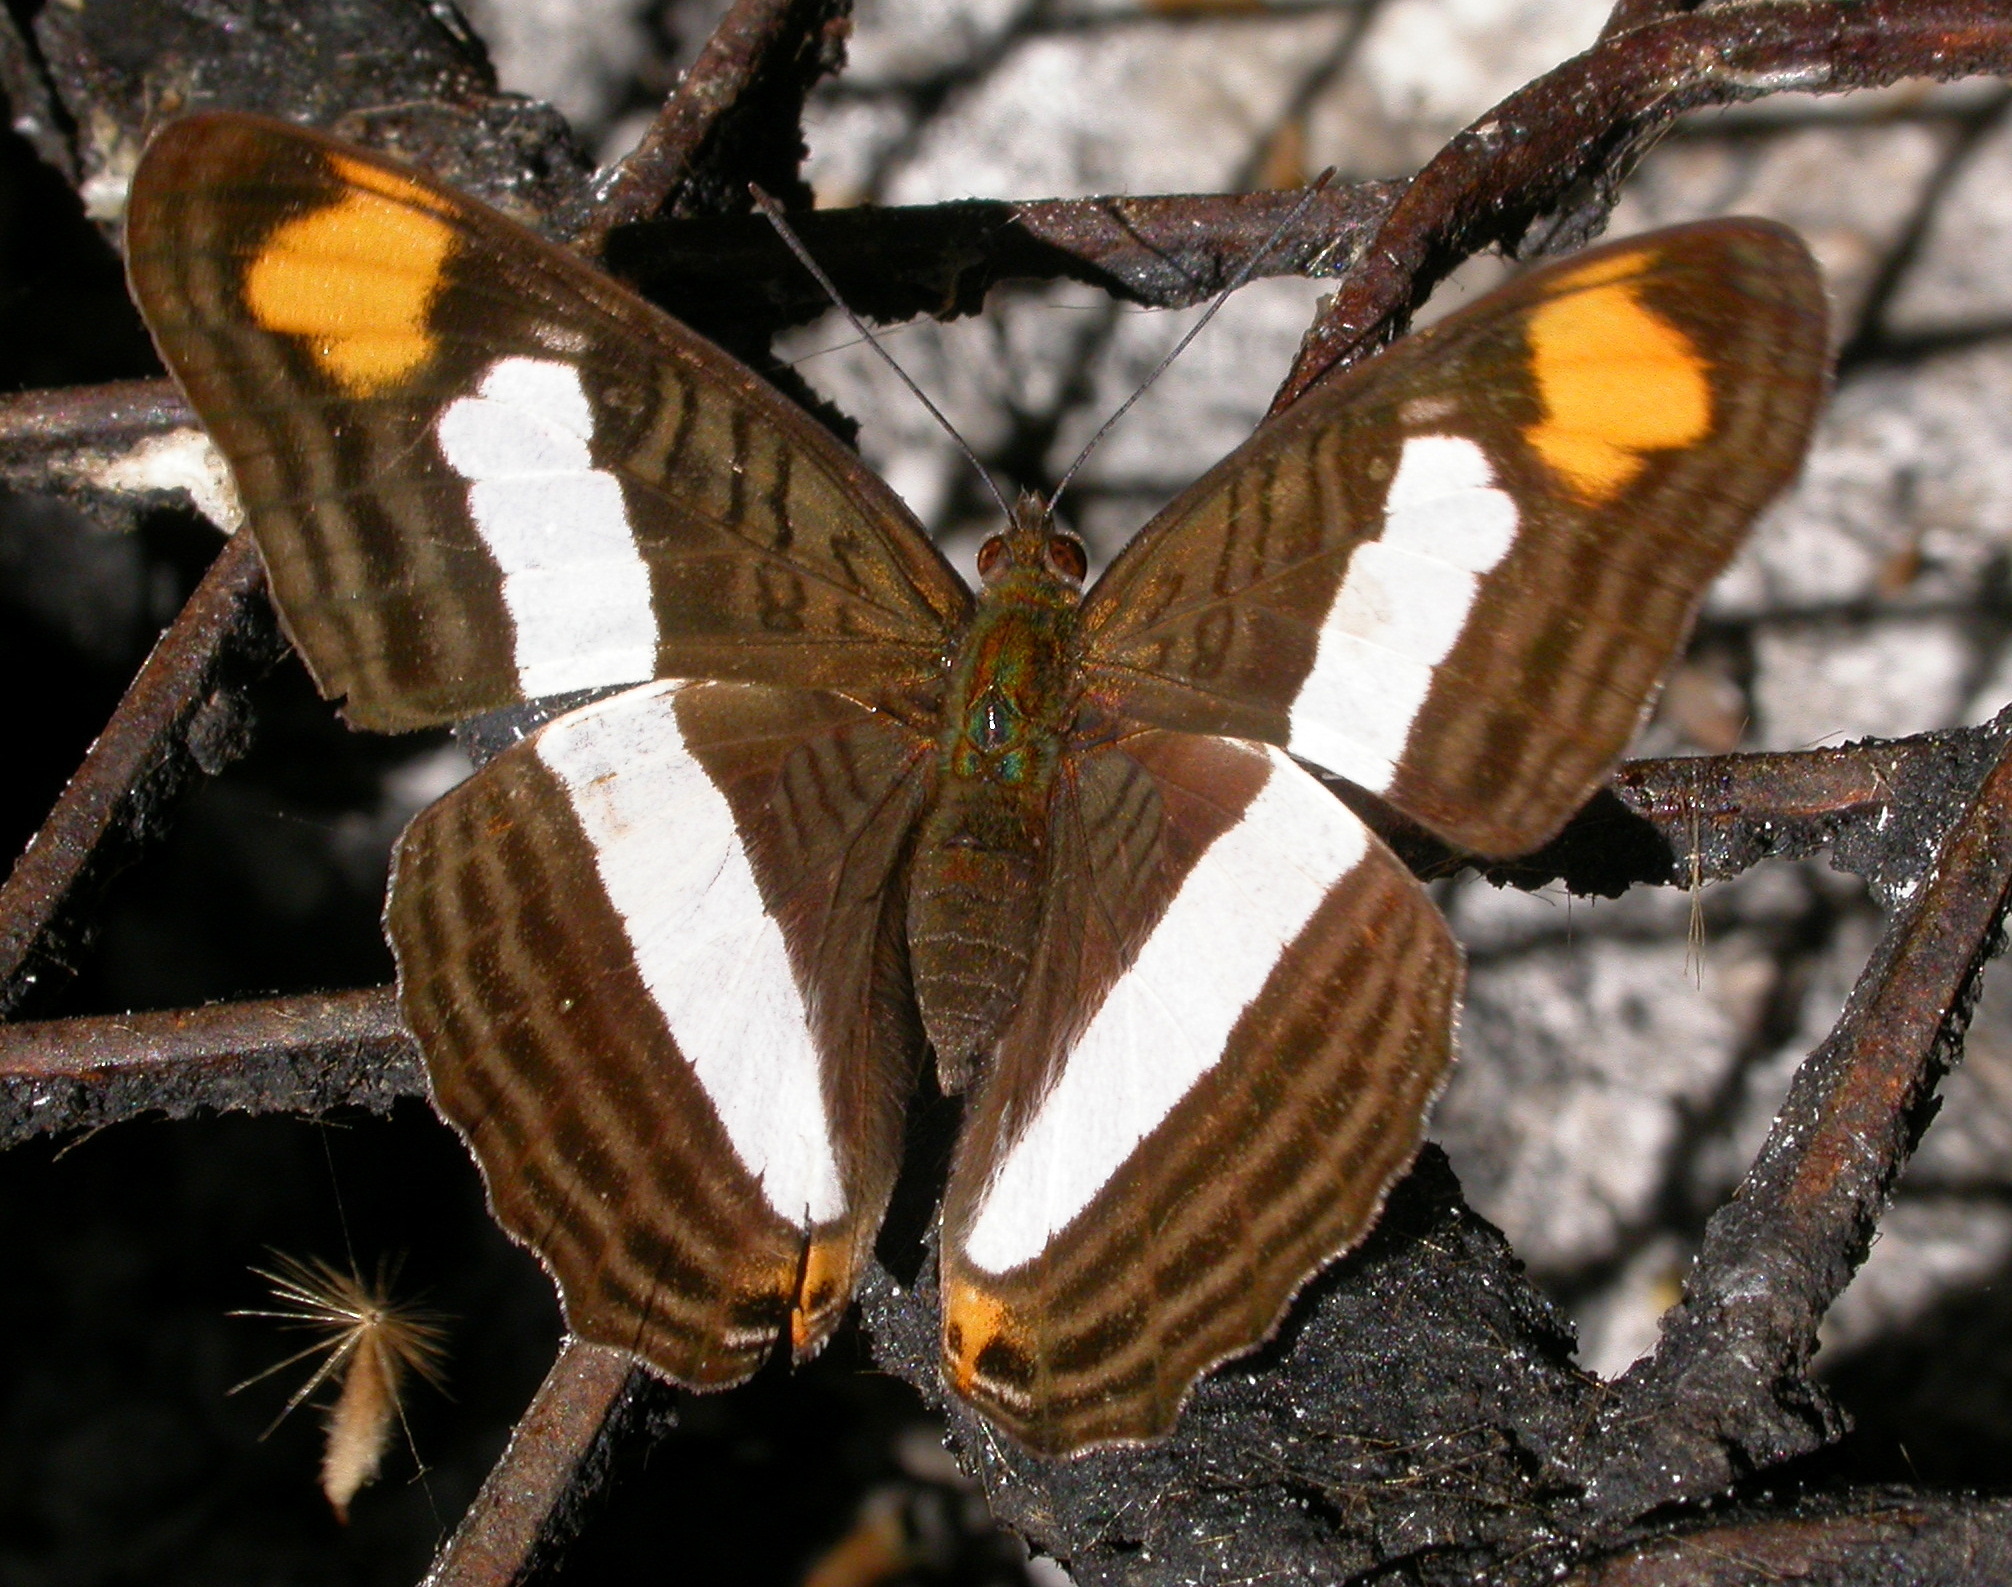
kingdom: Animalia
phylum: Arthropoda
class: Insecta
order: Lepidoptera
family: Nymphalidae
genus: Limenitis
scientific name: Limenitis Adelpha basiloides
